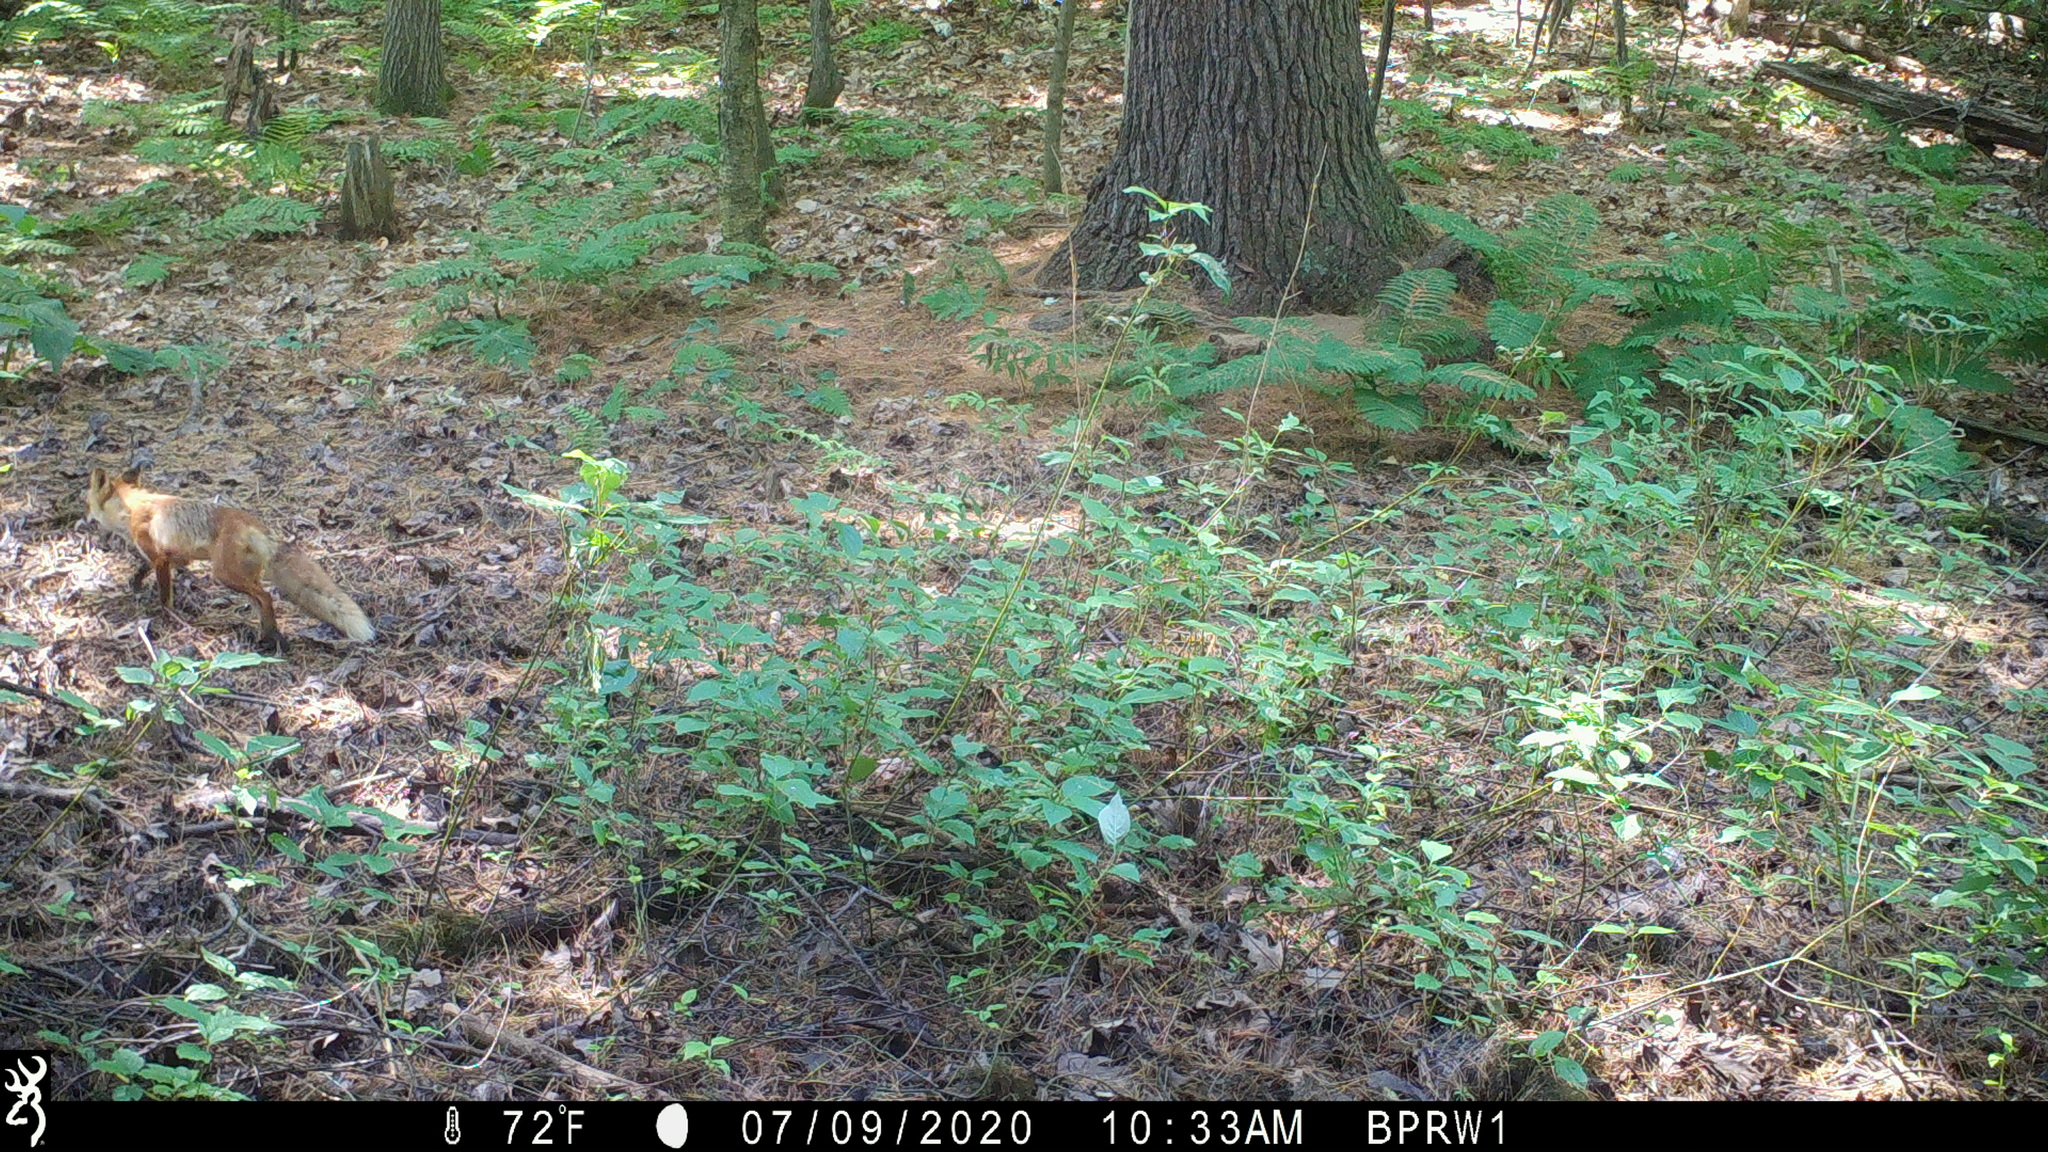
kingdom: Animalia
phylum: Chordata
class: Mammalia
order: Carnivora
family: Canidae
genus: Vulpes
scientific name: Vulpes vulpes
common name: Red fox
